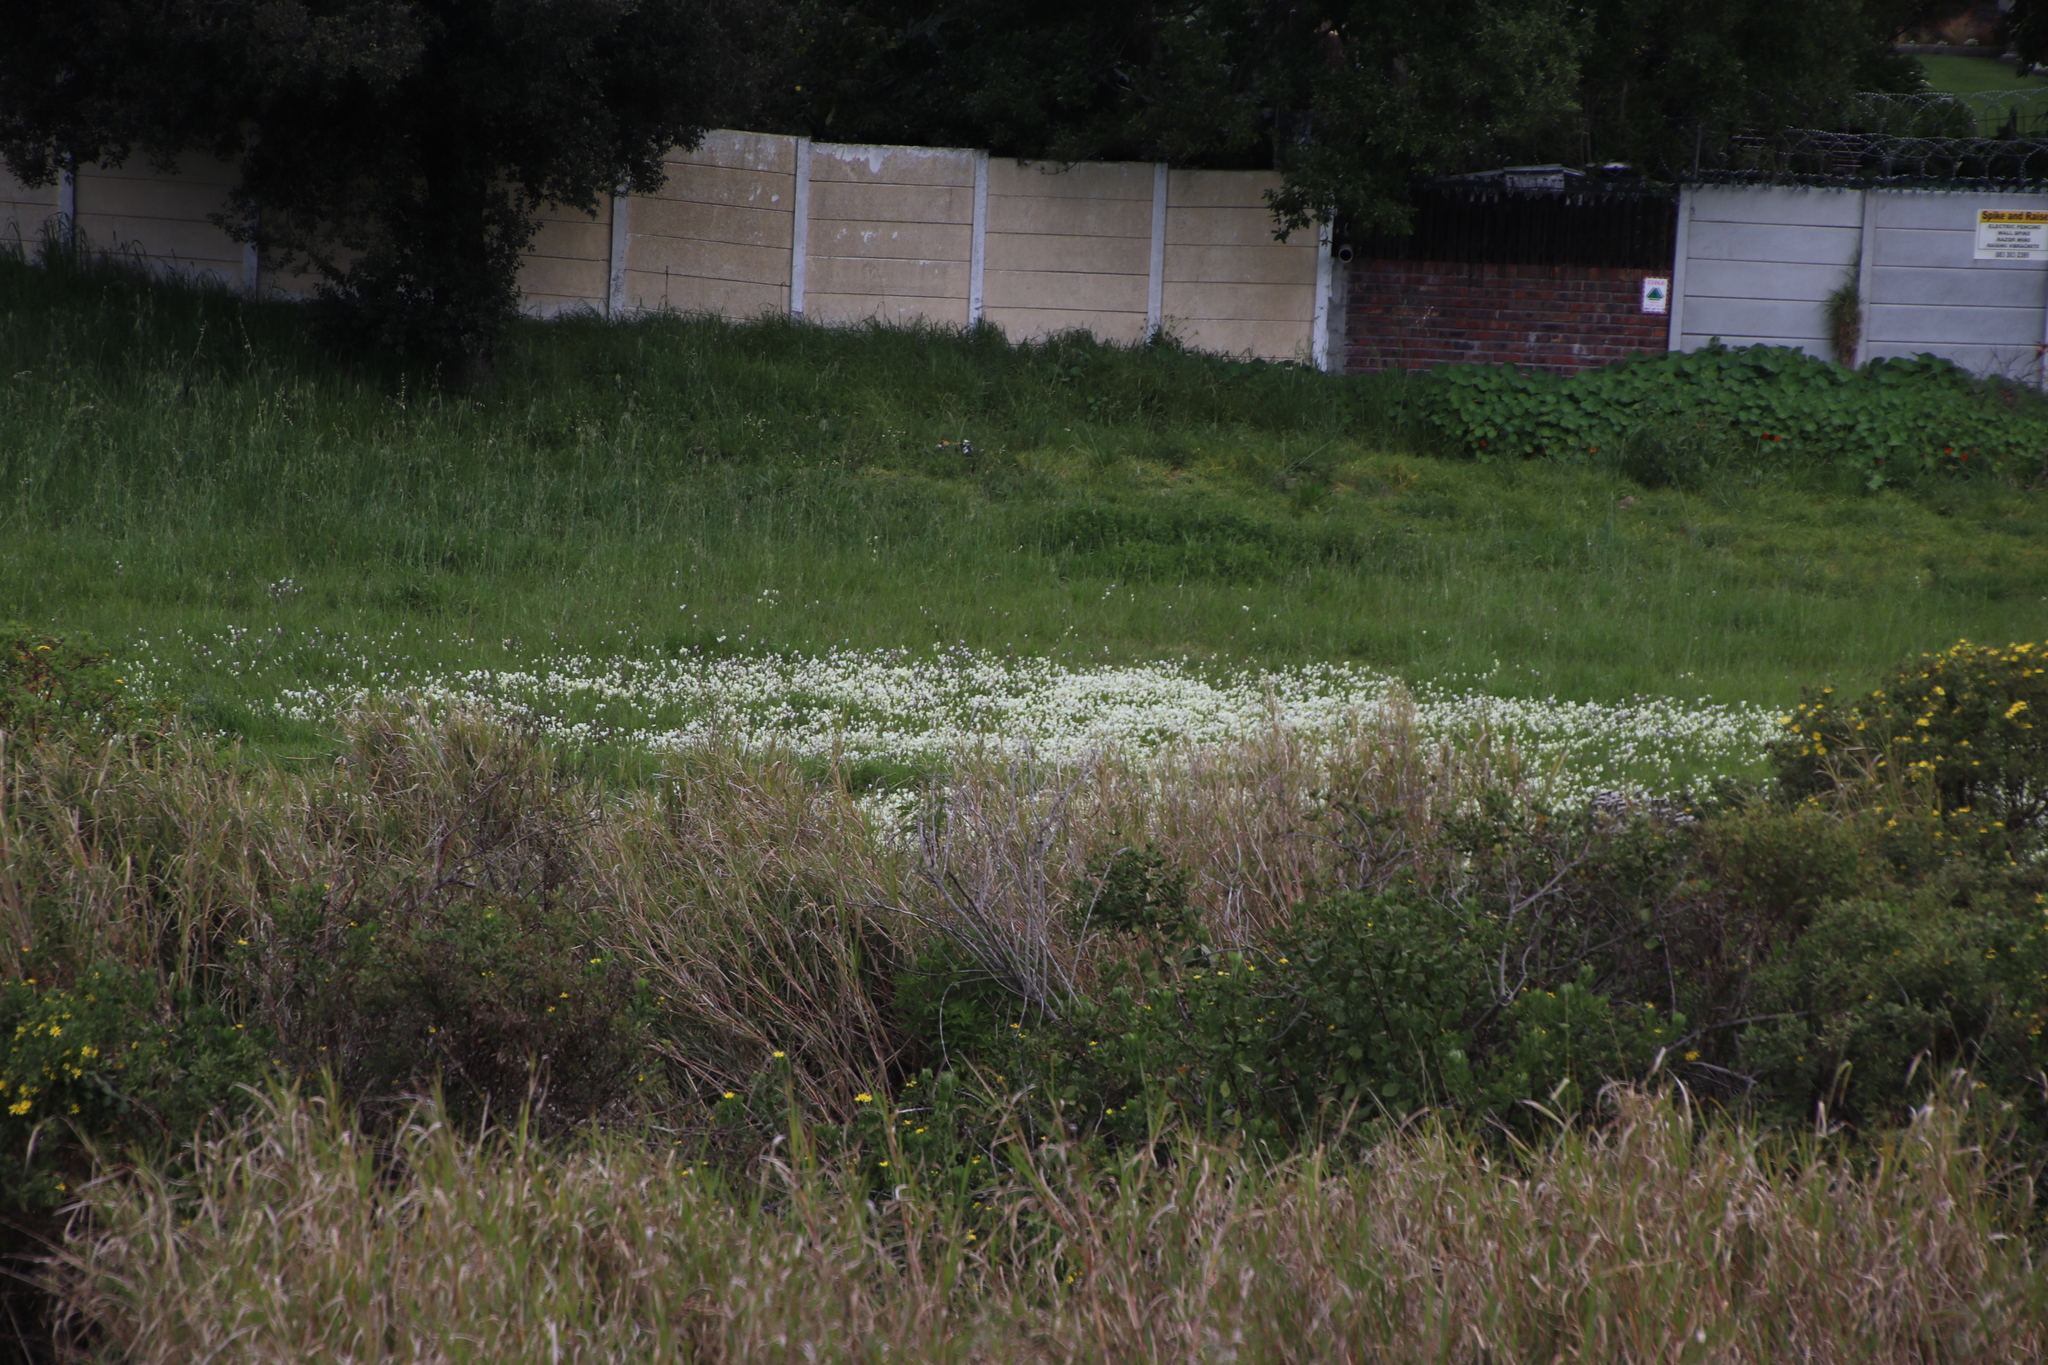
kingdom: Plantae
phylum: Tracheophyta
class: Liliopsida
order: Asparagales
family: Iridaceae
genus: Sparaxis
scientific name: Sparaxis bulbifera
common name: Harlequin-flower
